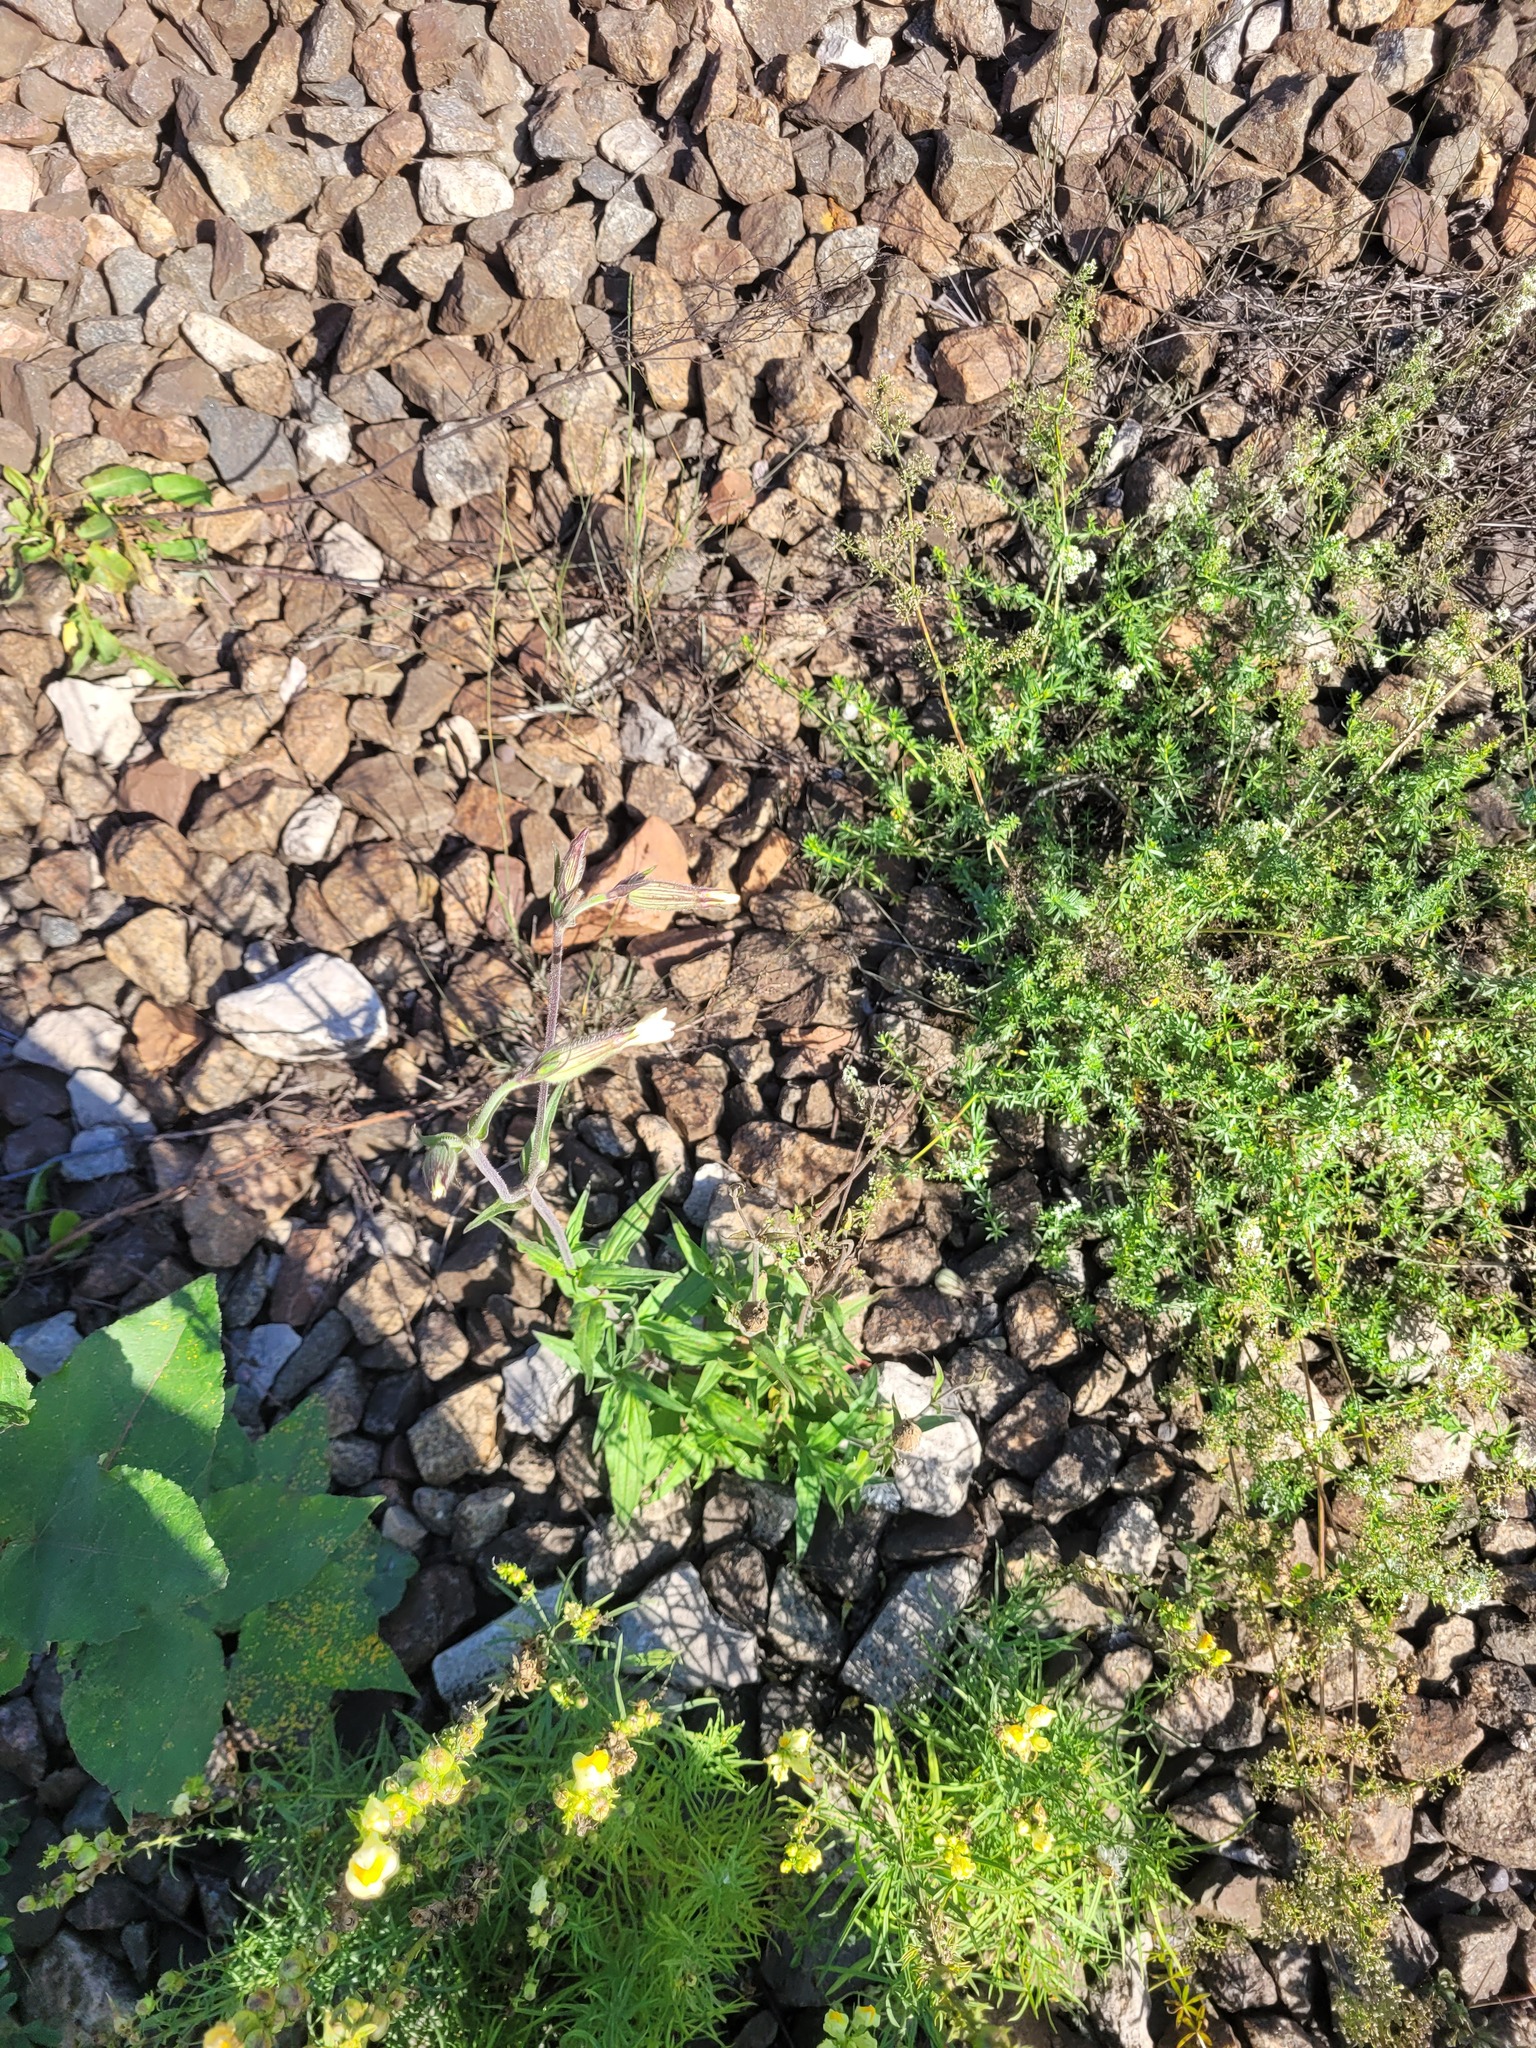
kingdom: Plantae
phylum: Tracheophyta
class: Magnoliopsida
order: Caryophyllales
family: Caryophyllaceae
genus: Silene
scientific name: Silene latifolia
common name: White campion
